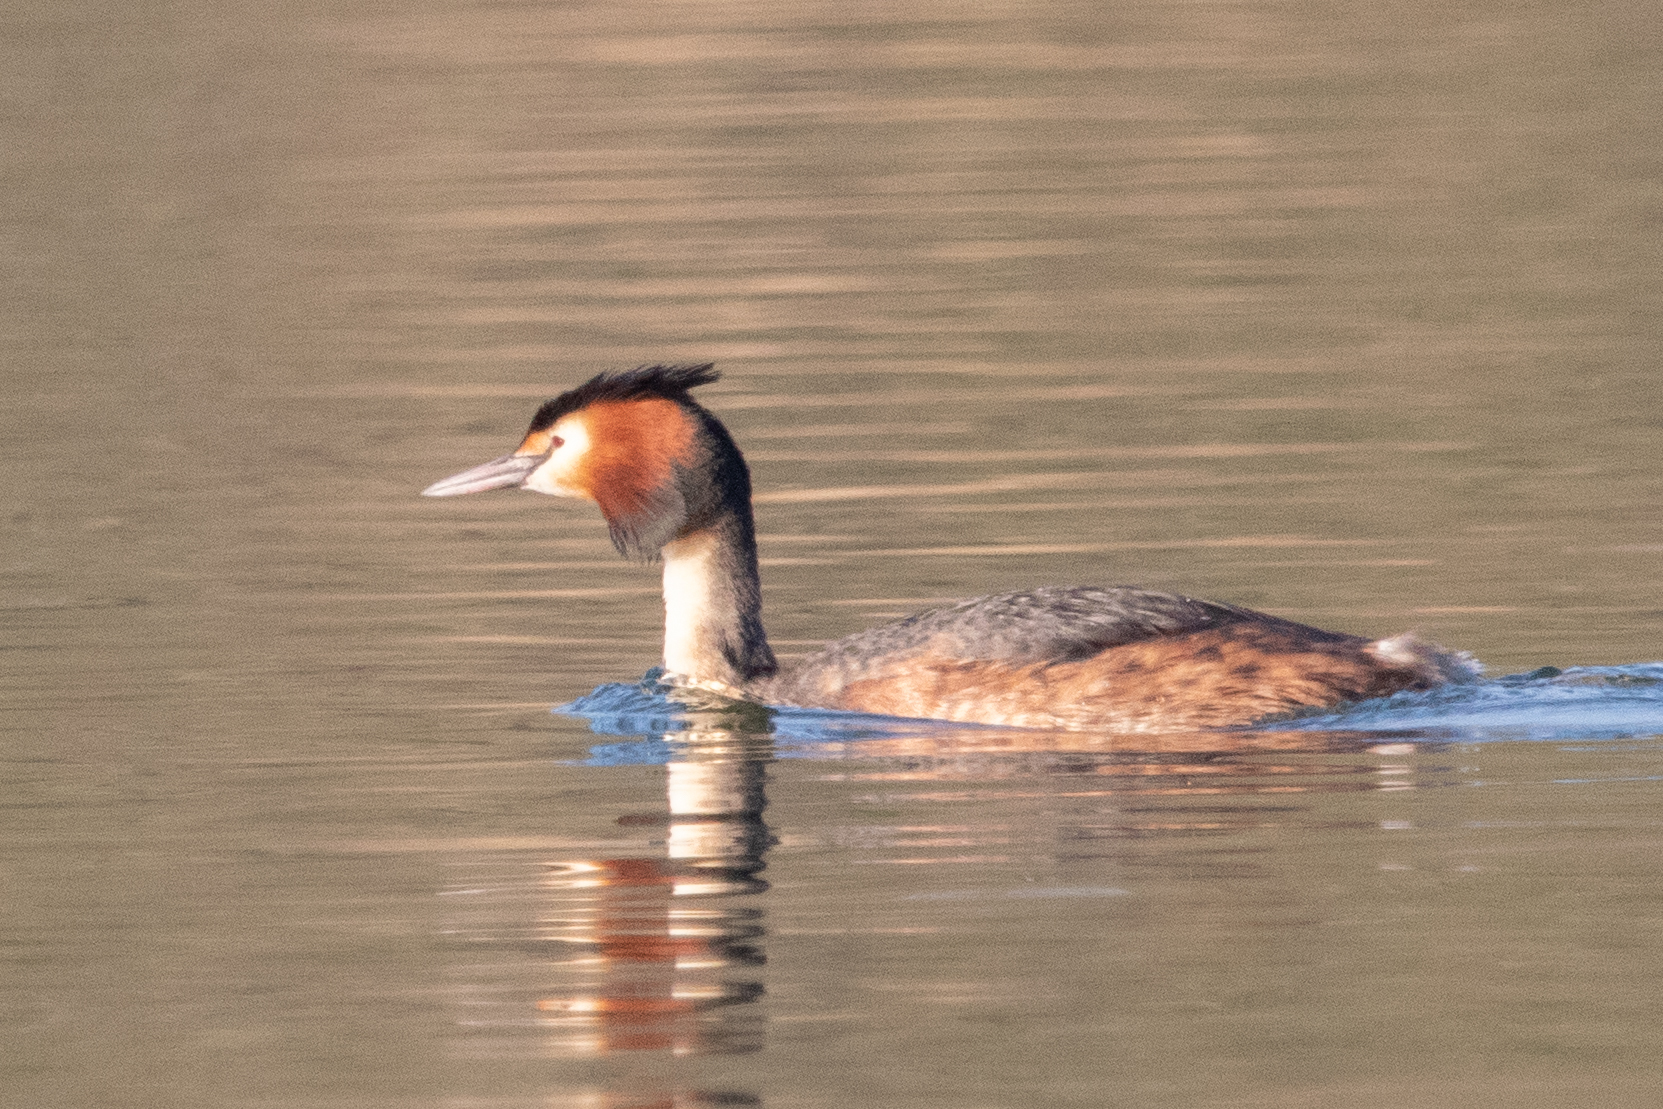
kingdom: Animalia
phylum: Chordata
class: Aves
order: Podicipediformes
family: Podicipedidae
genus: Podiceps
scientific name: Podiceps cristatus
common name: Great crested grebe
